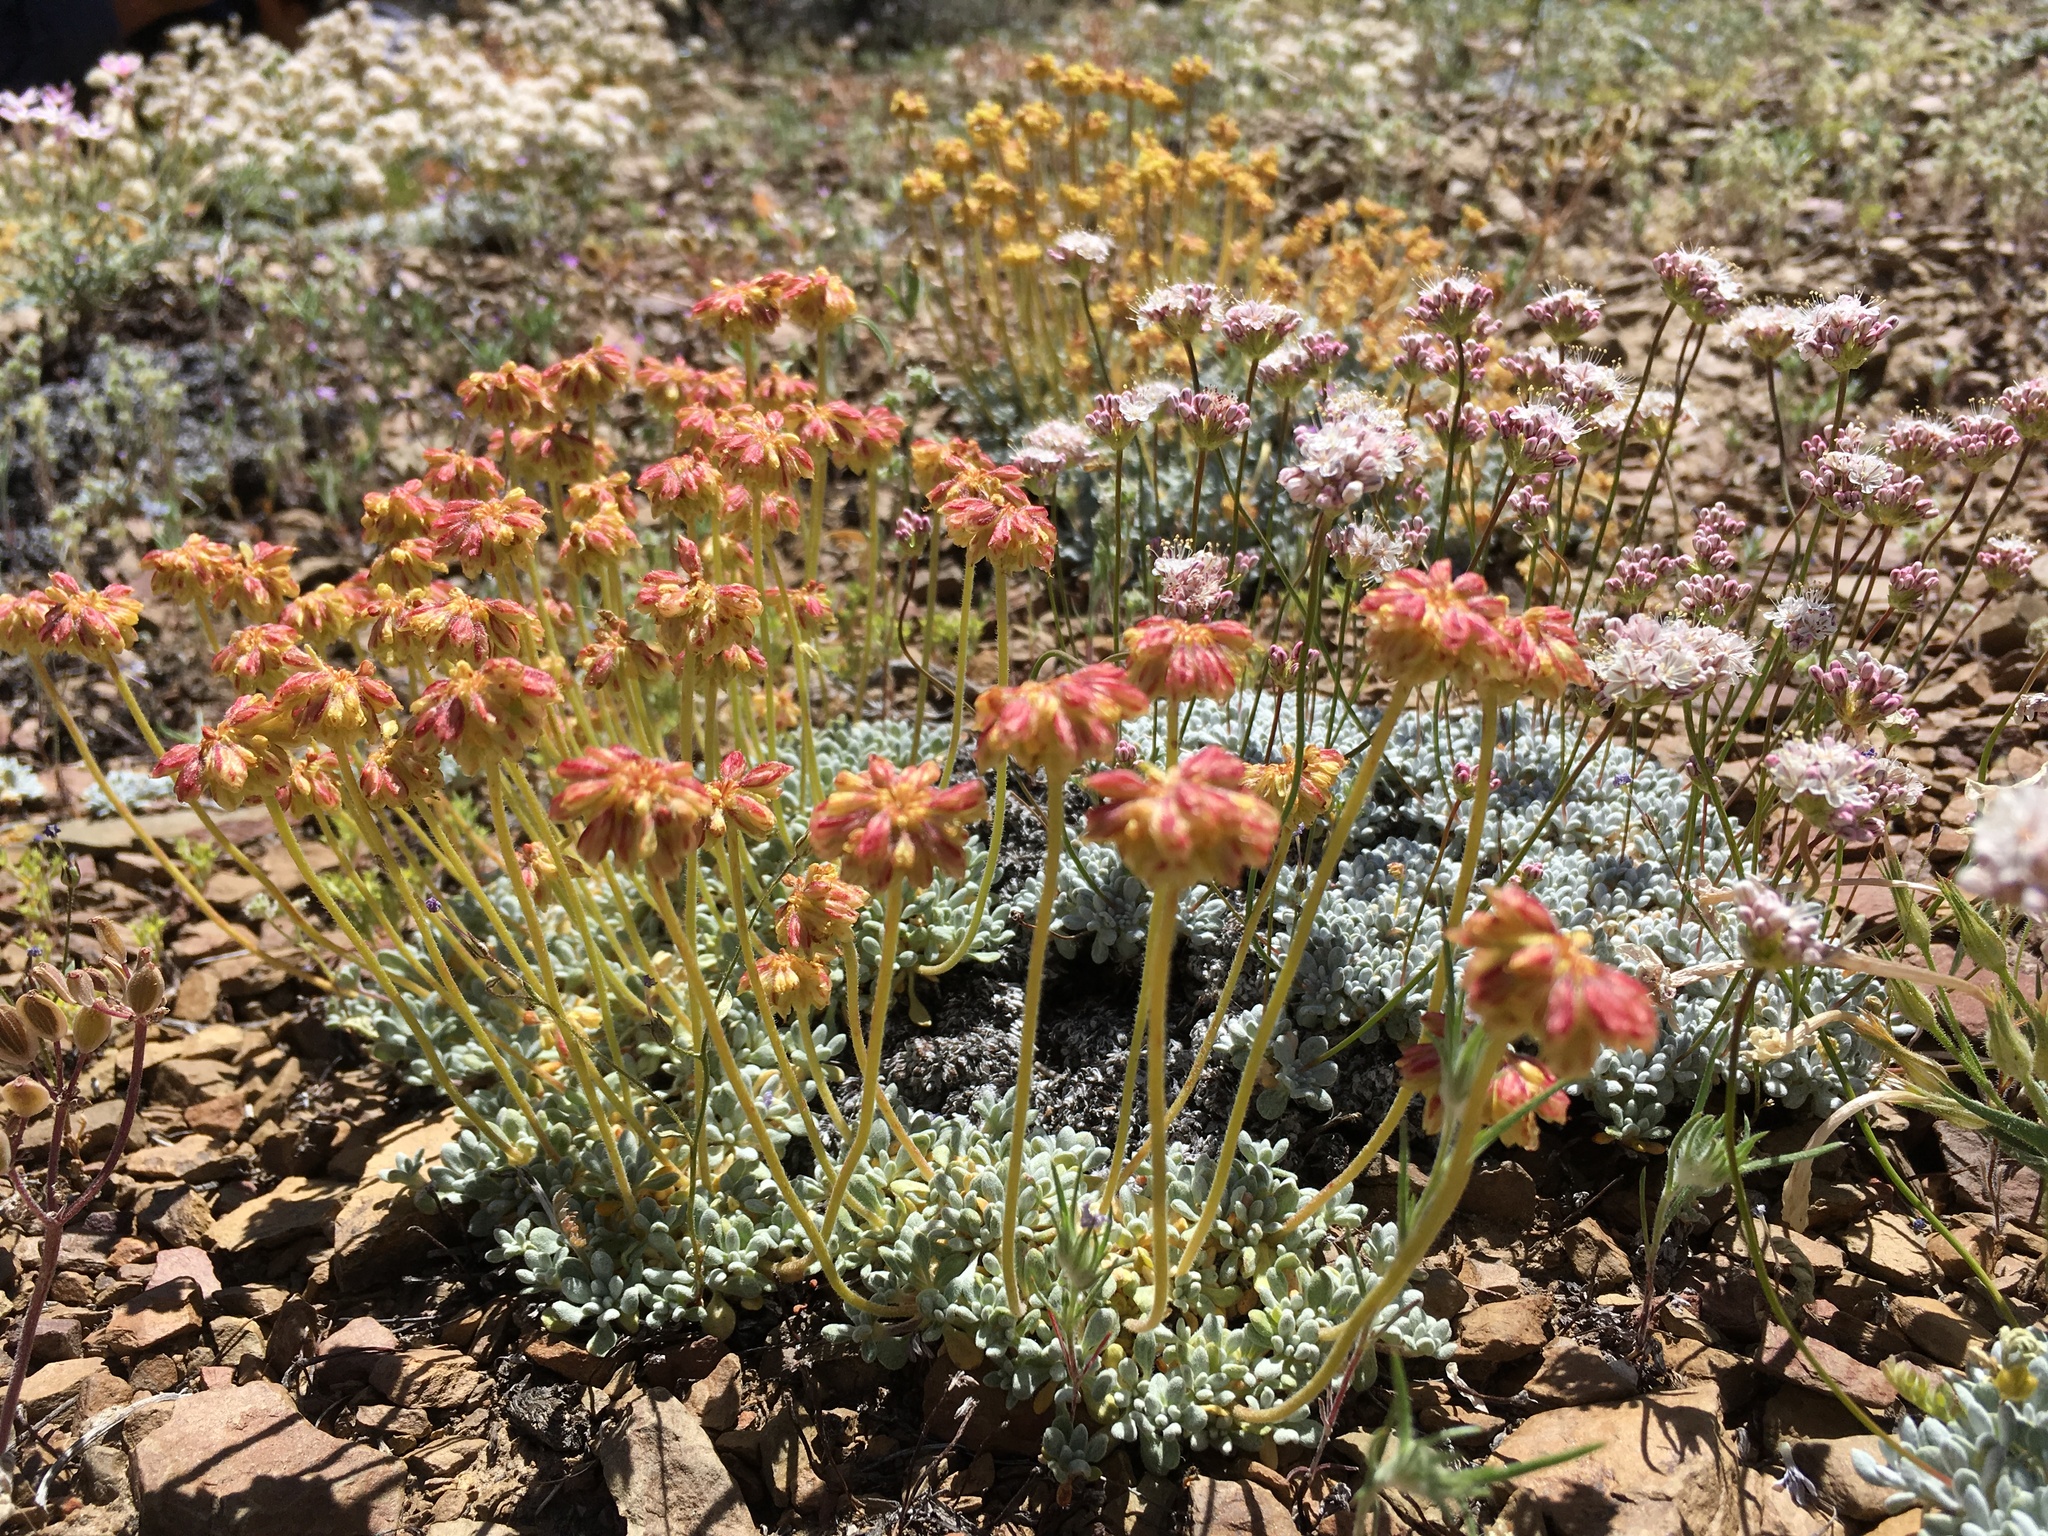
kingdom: Plantae
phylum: Tracheophyta
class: Magnoliopsida
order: Caryophyllales
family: Polygonaceae
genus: Eriogonum
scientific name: Eriogonum caespitosum
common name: Matted wild buckwheat
